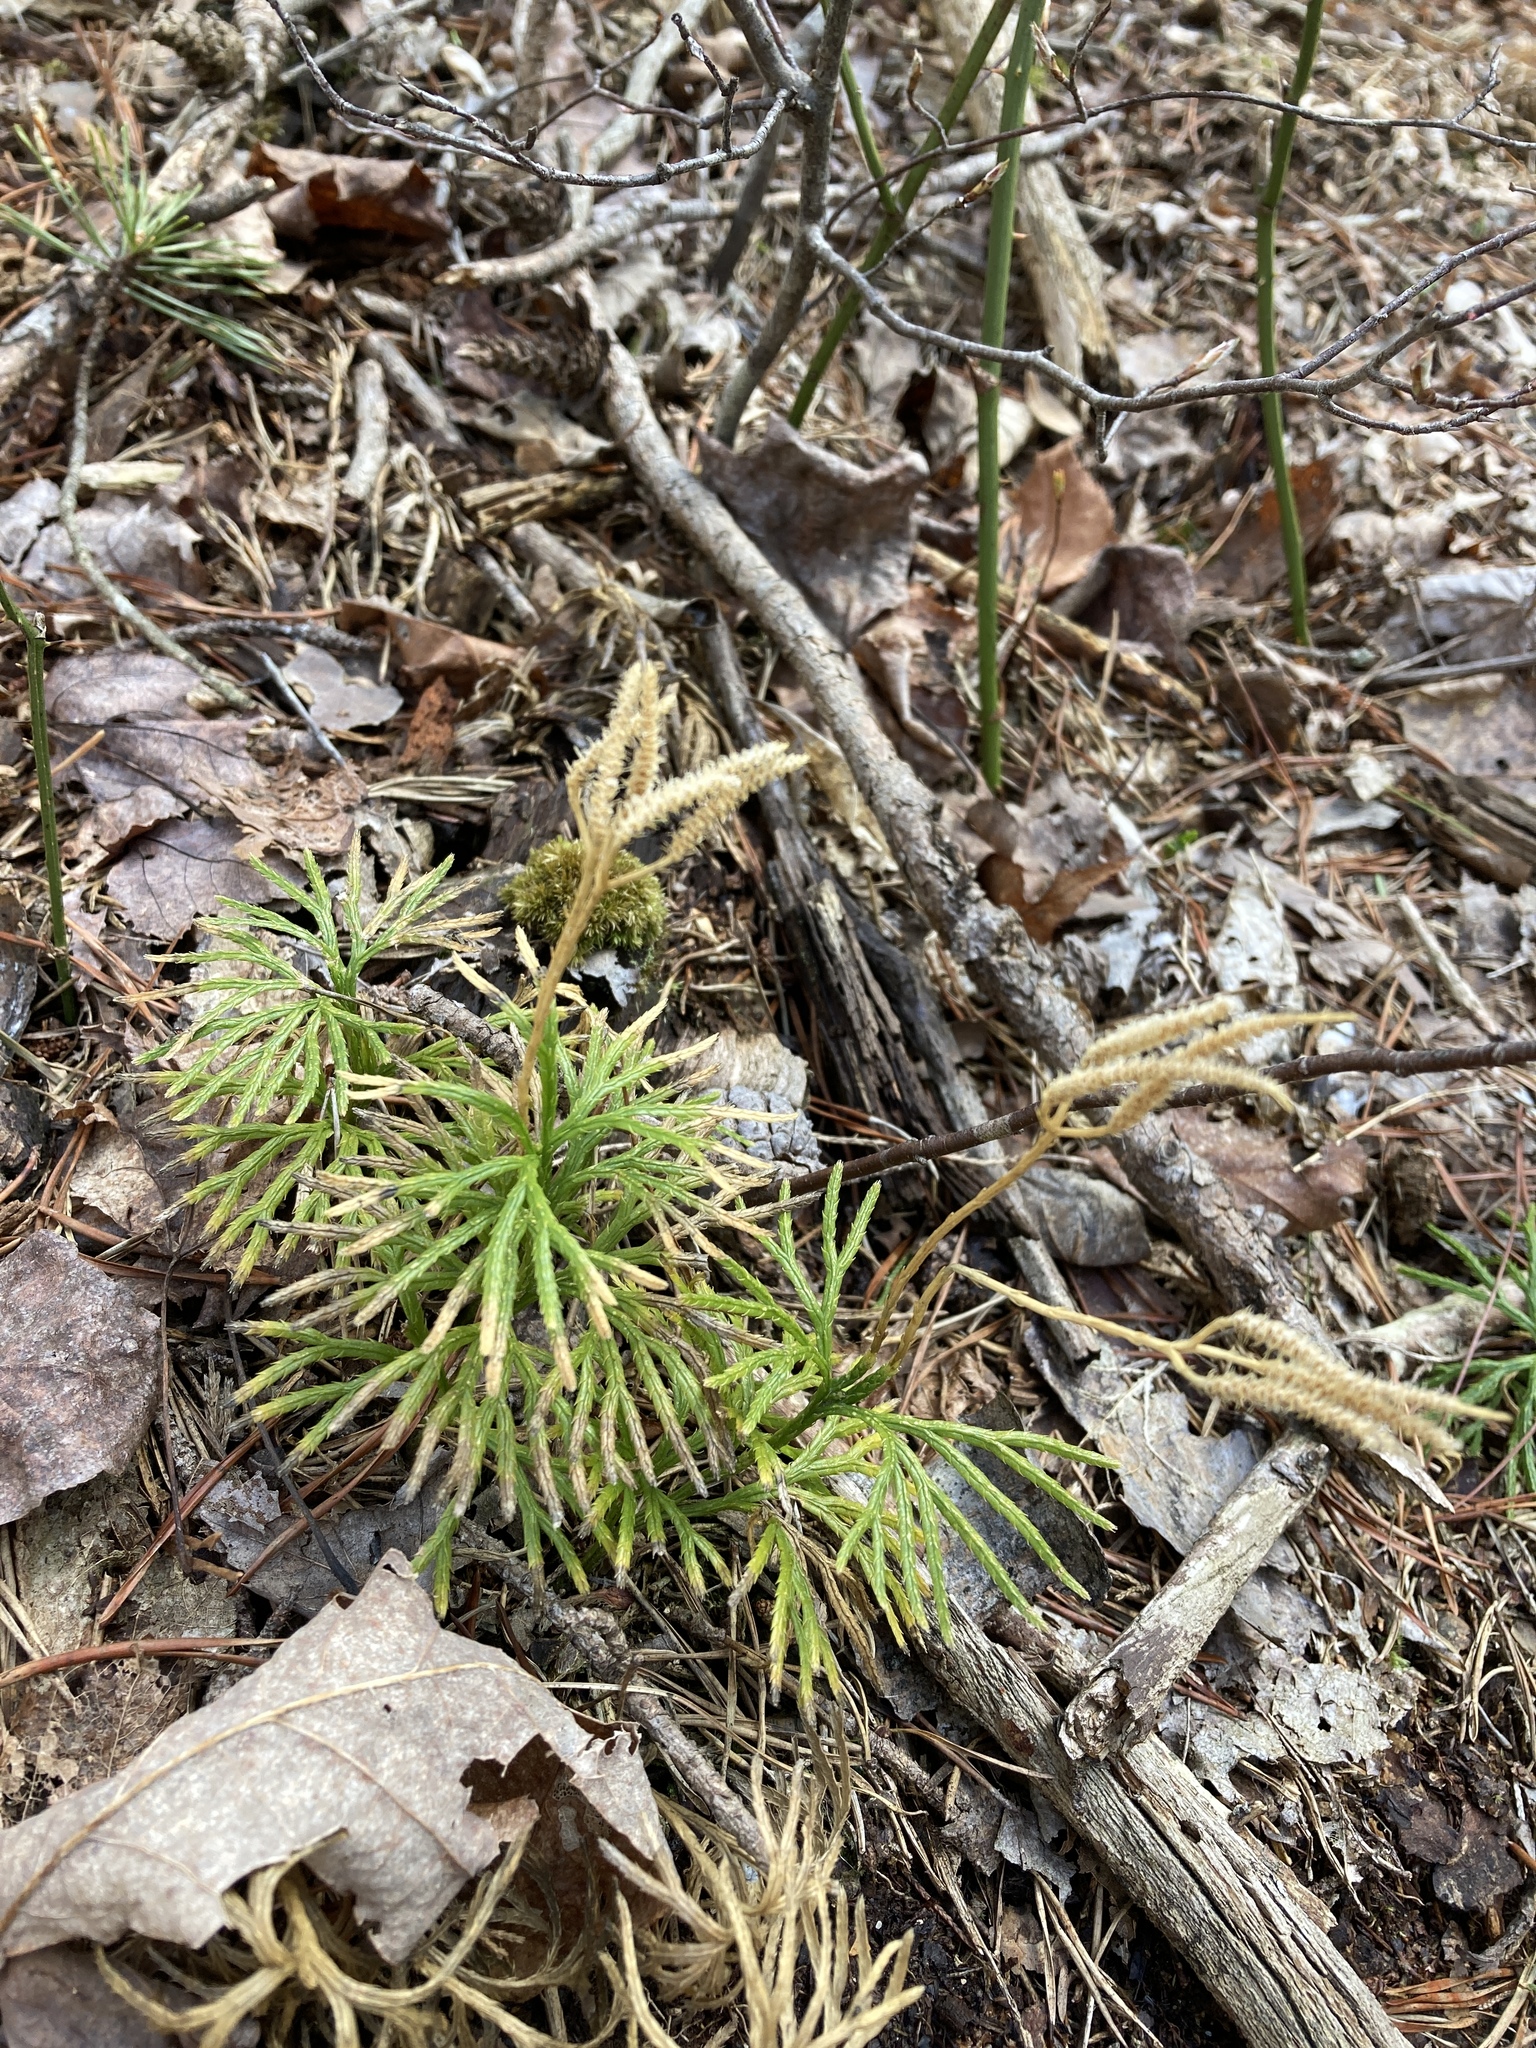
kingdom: Plantae
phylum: Tracheophyta
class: Lycopodiopsida
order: Lycopodiales
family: Lycopodiaceae
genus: Diphasiastrum
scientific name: Diphasiastrum digitatum
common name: Southern running-pine
